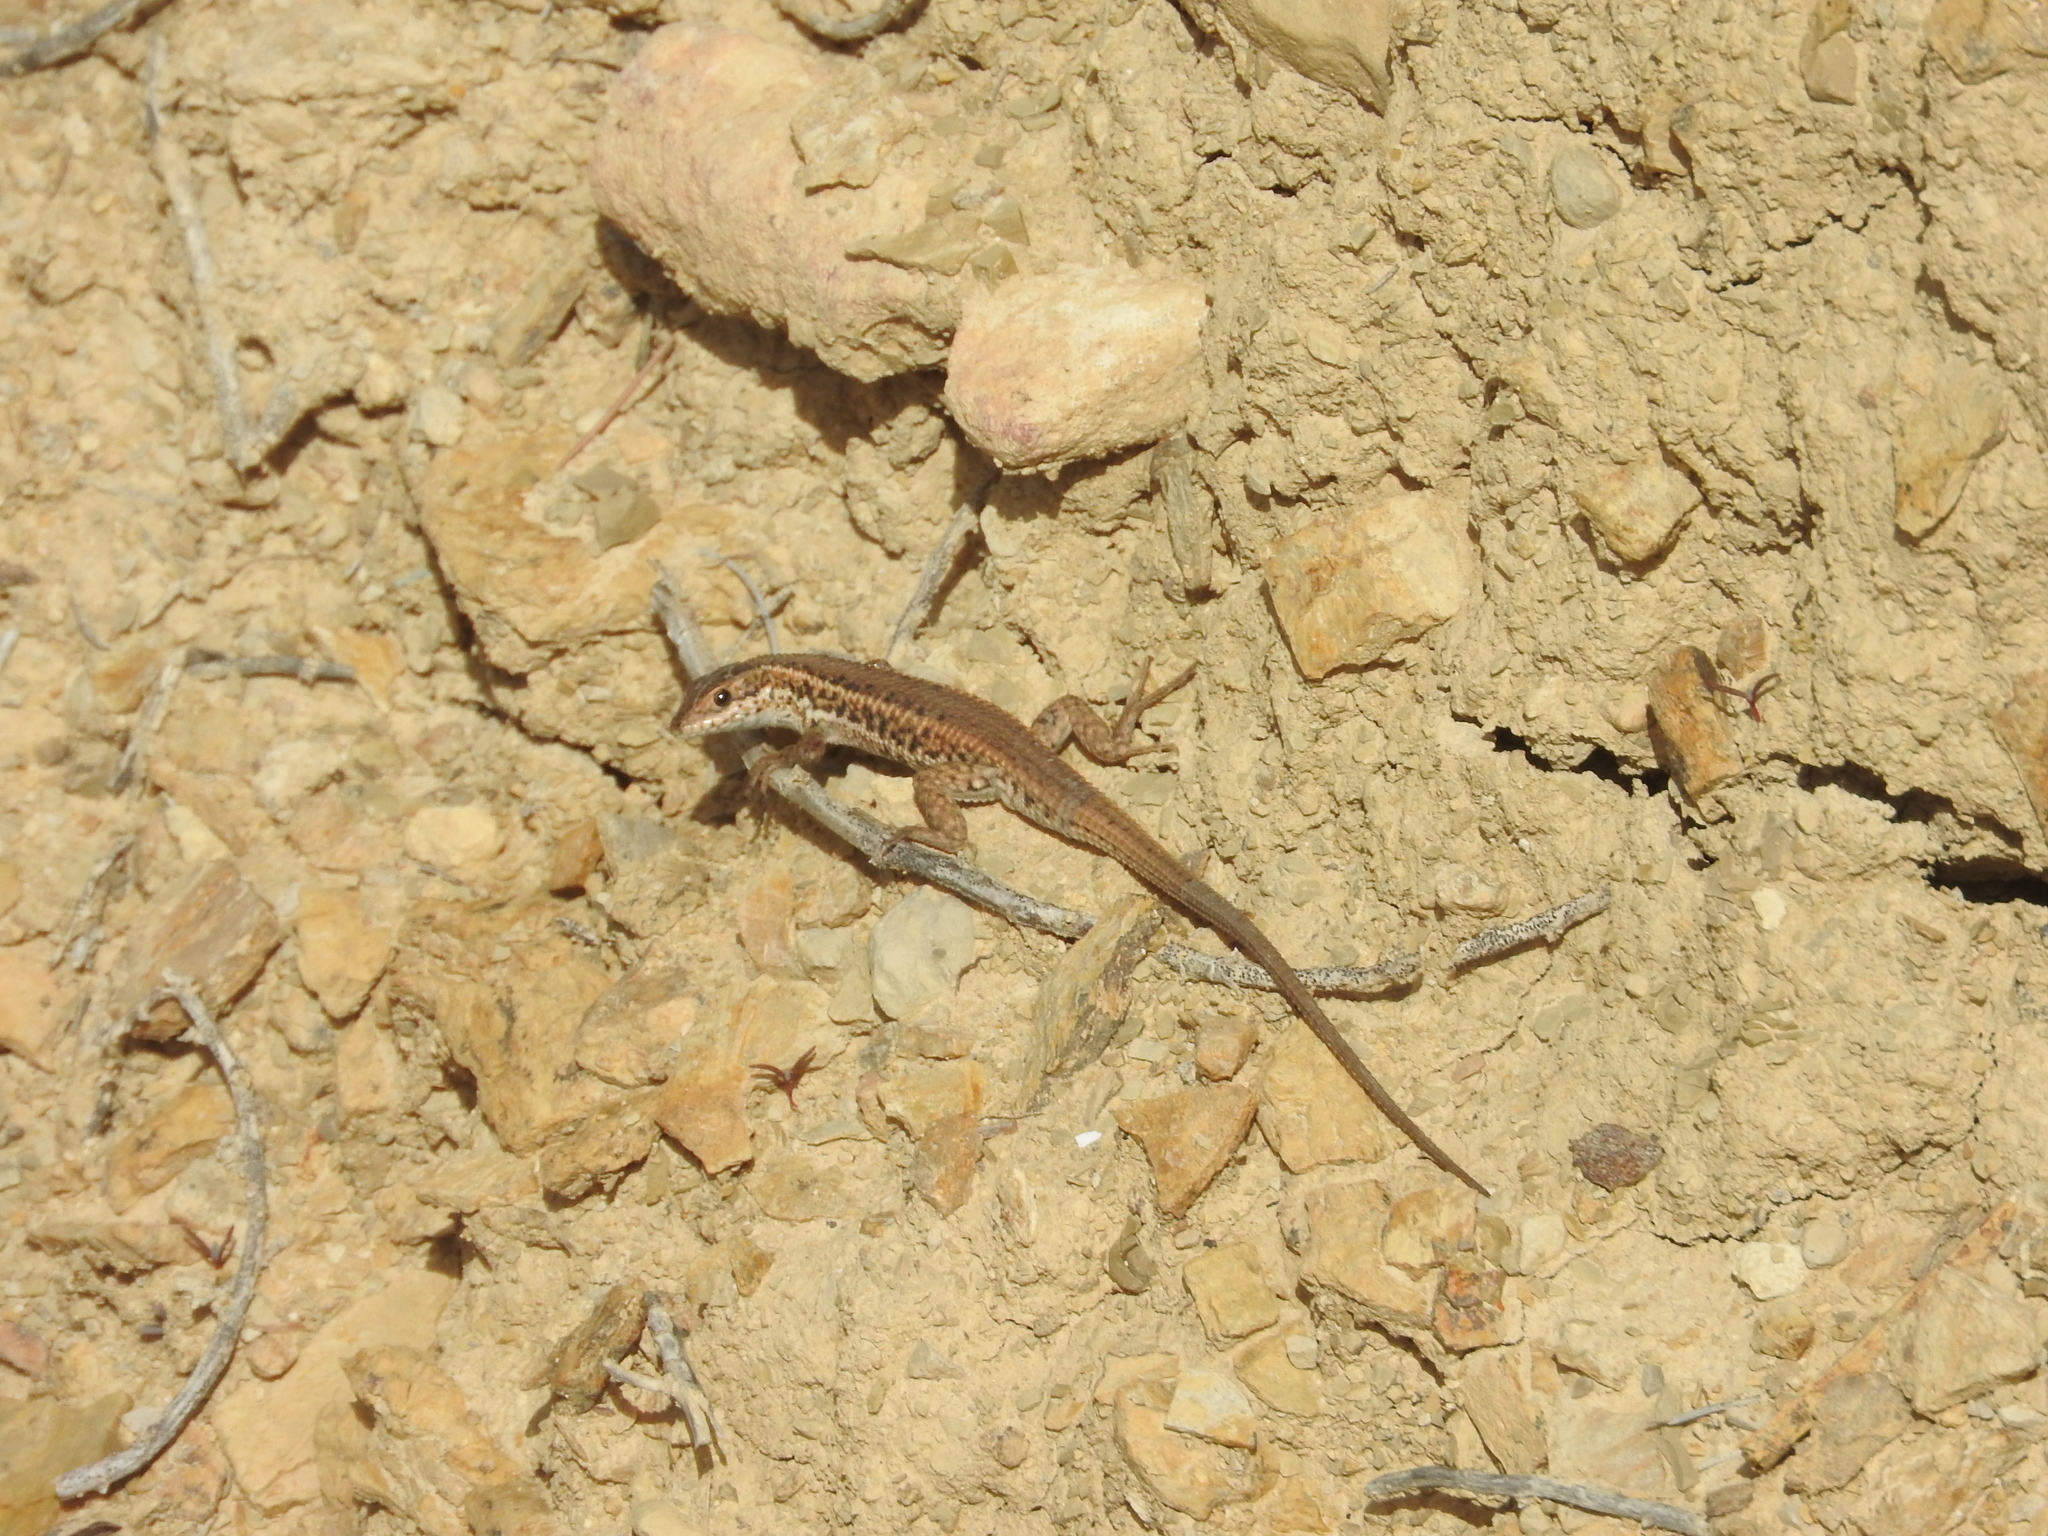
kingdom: Animalia
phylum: Chordata
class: Squamata
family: Lacertidae
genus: Ophisops
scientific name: Ophisops occidentalis
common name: Western snake-eyed lizard
